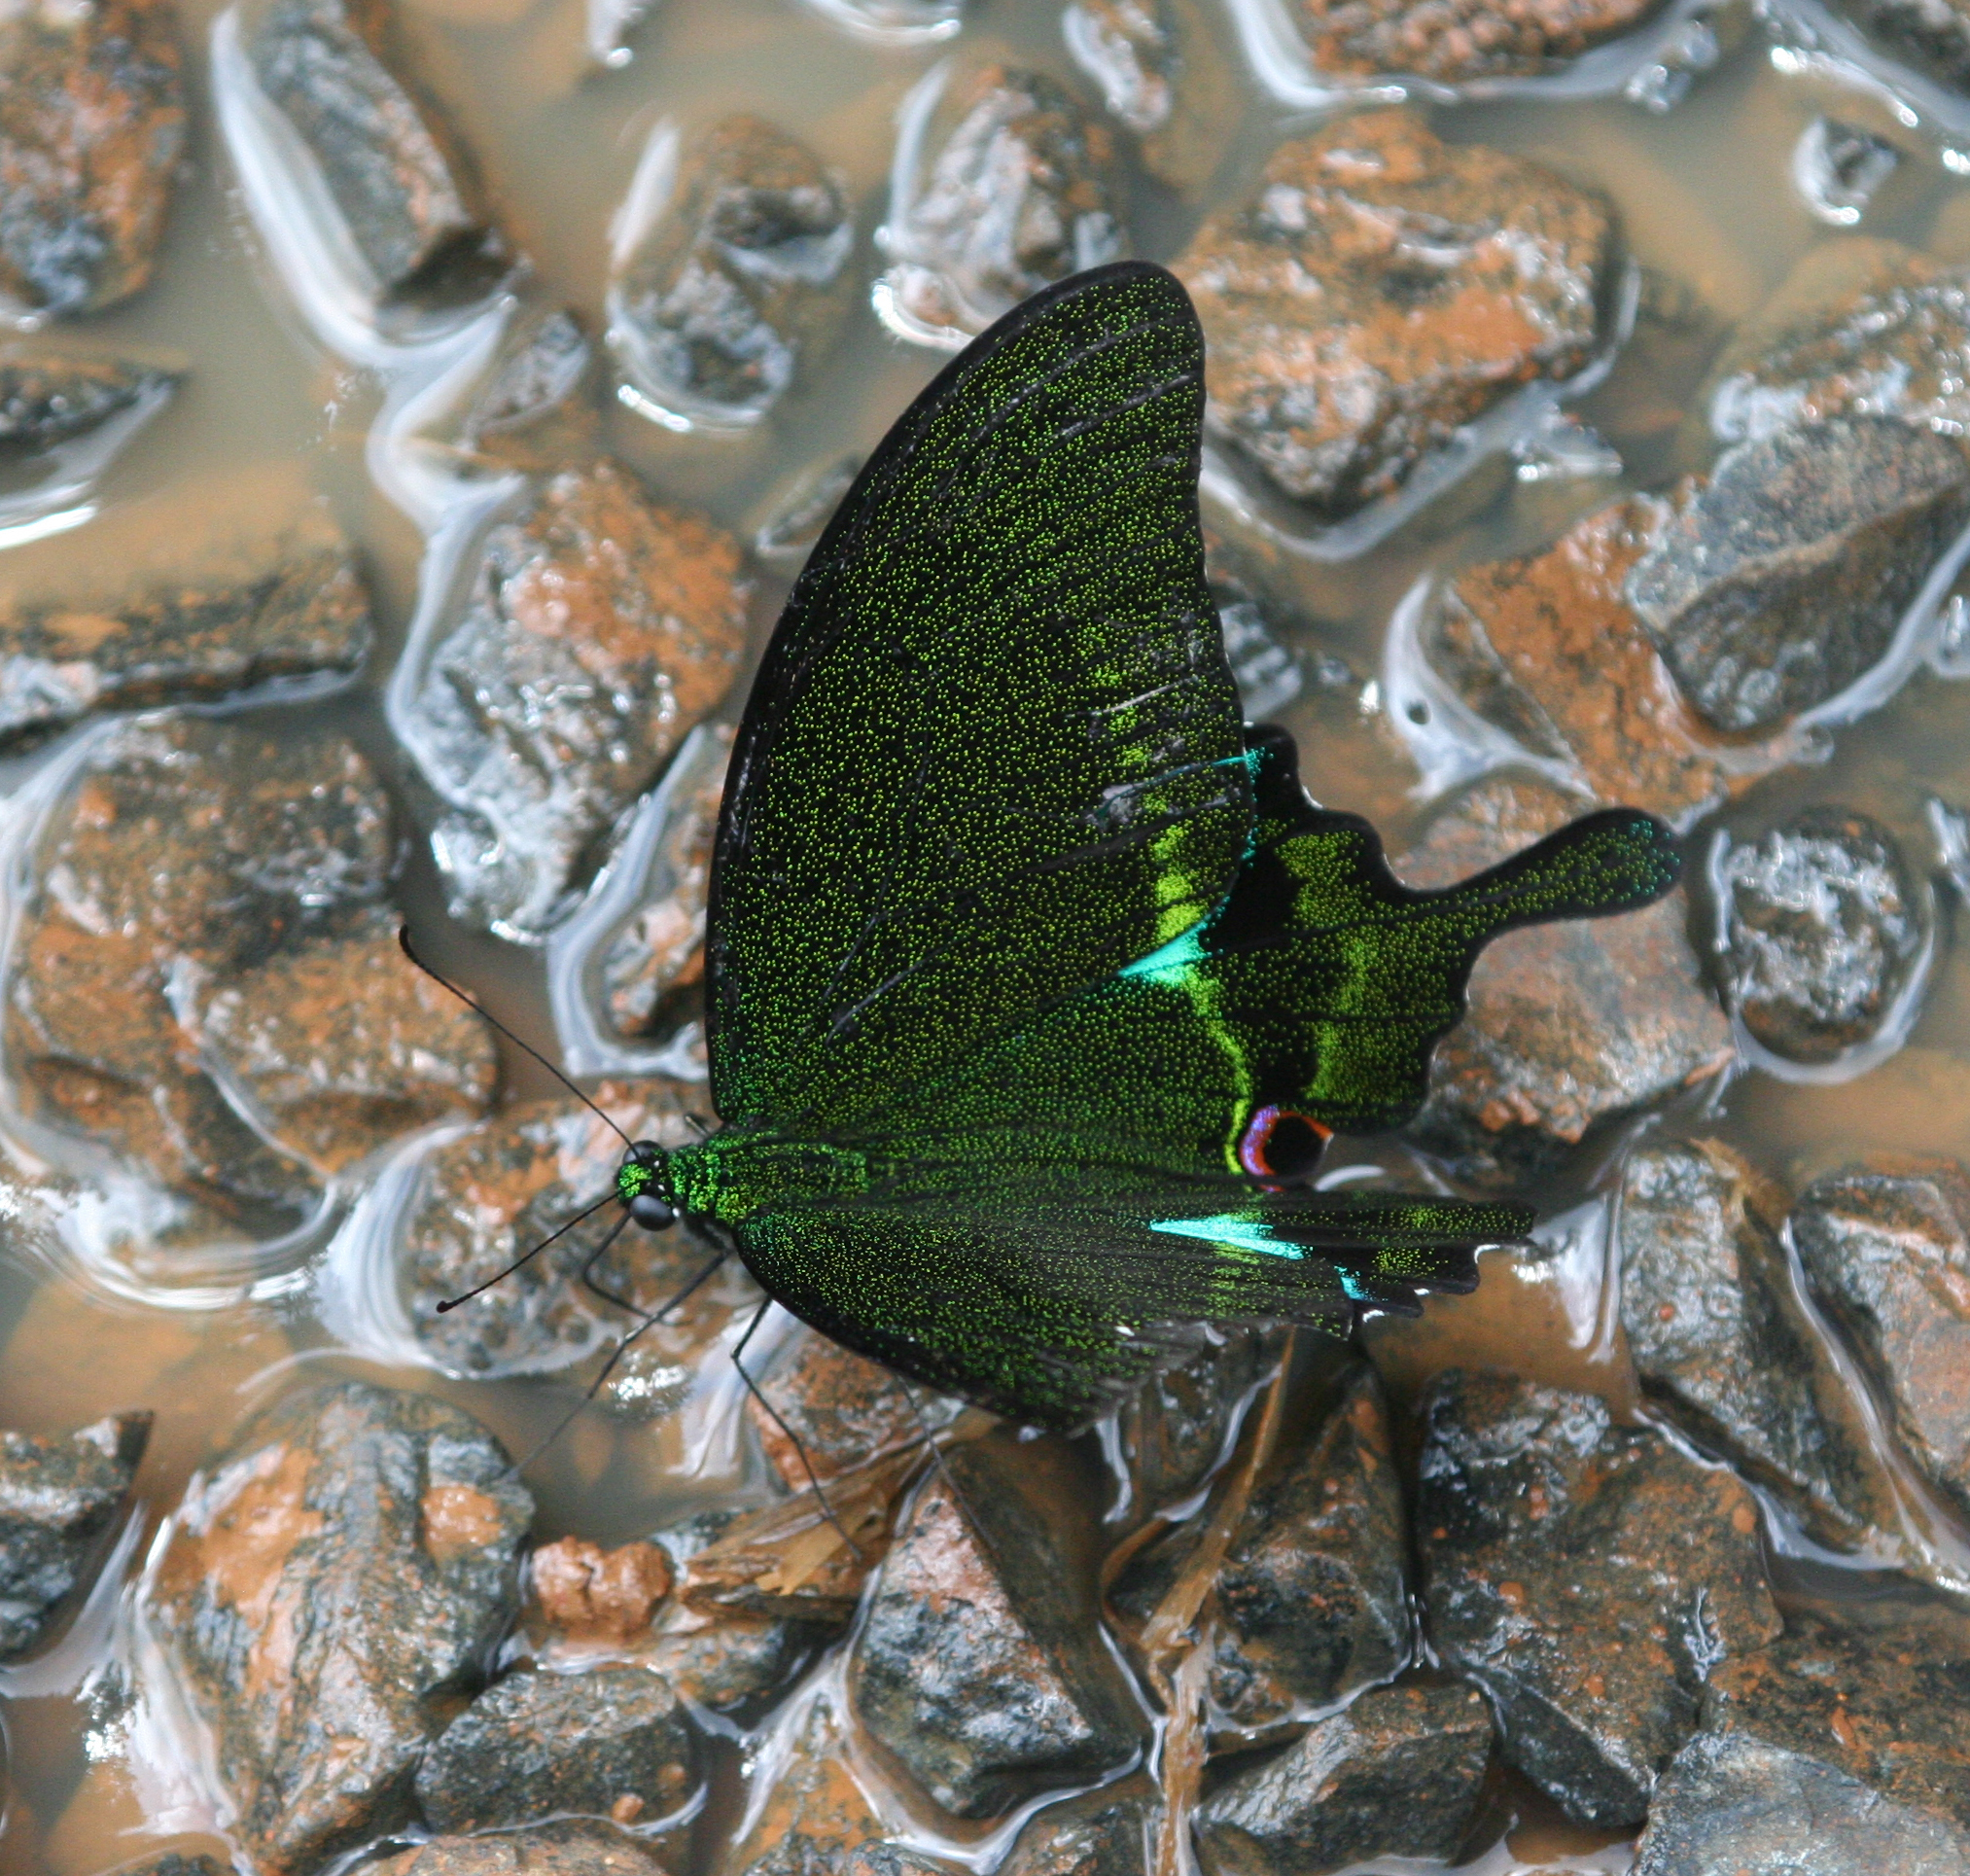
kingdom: Animalia
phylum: Arthropoda
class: Insecta
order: Lepidoptera
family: Papilionidae
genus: Papilio
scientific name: Papilio paris
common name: Paris peacock
